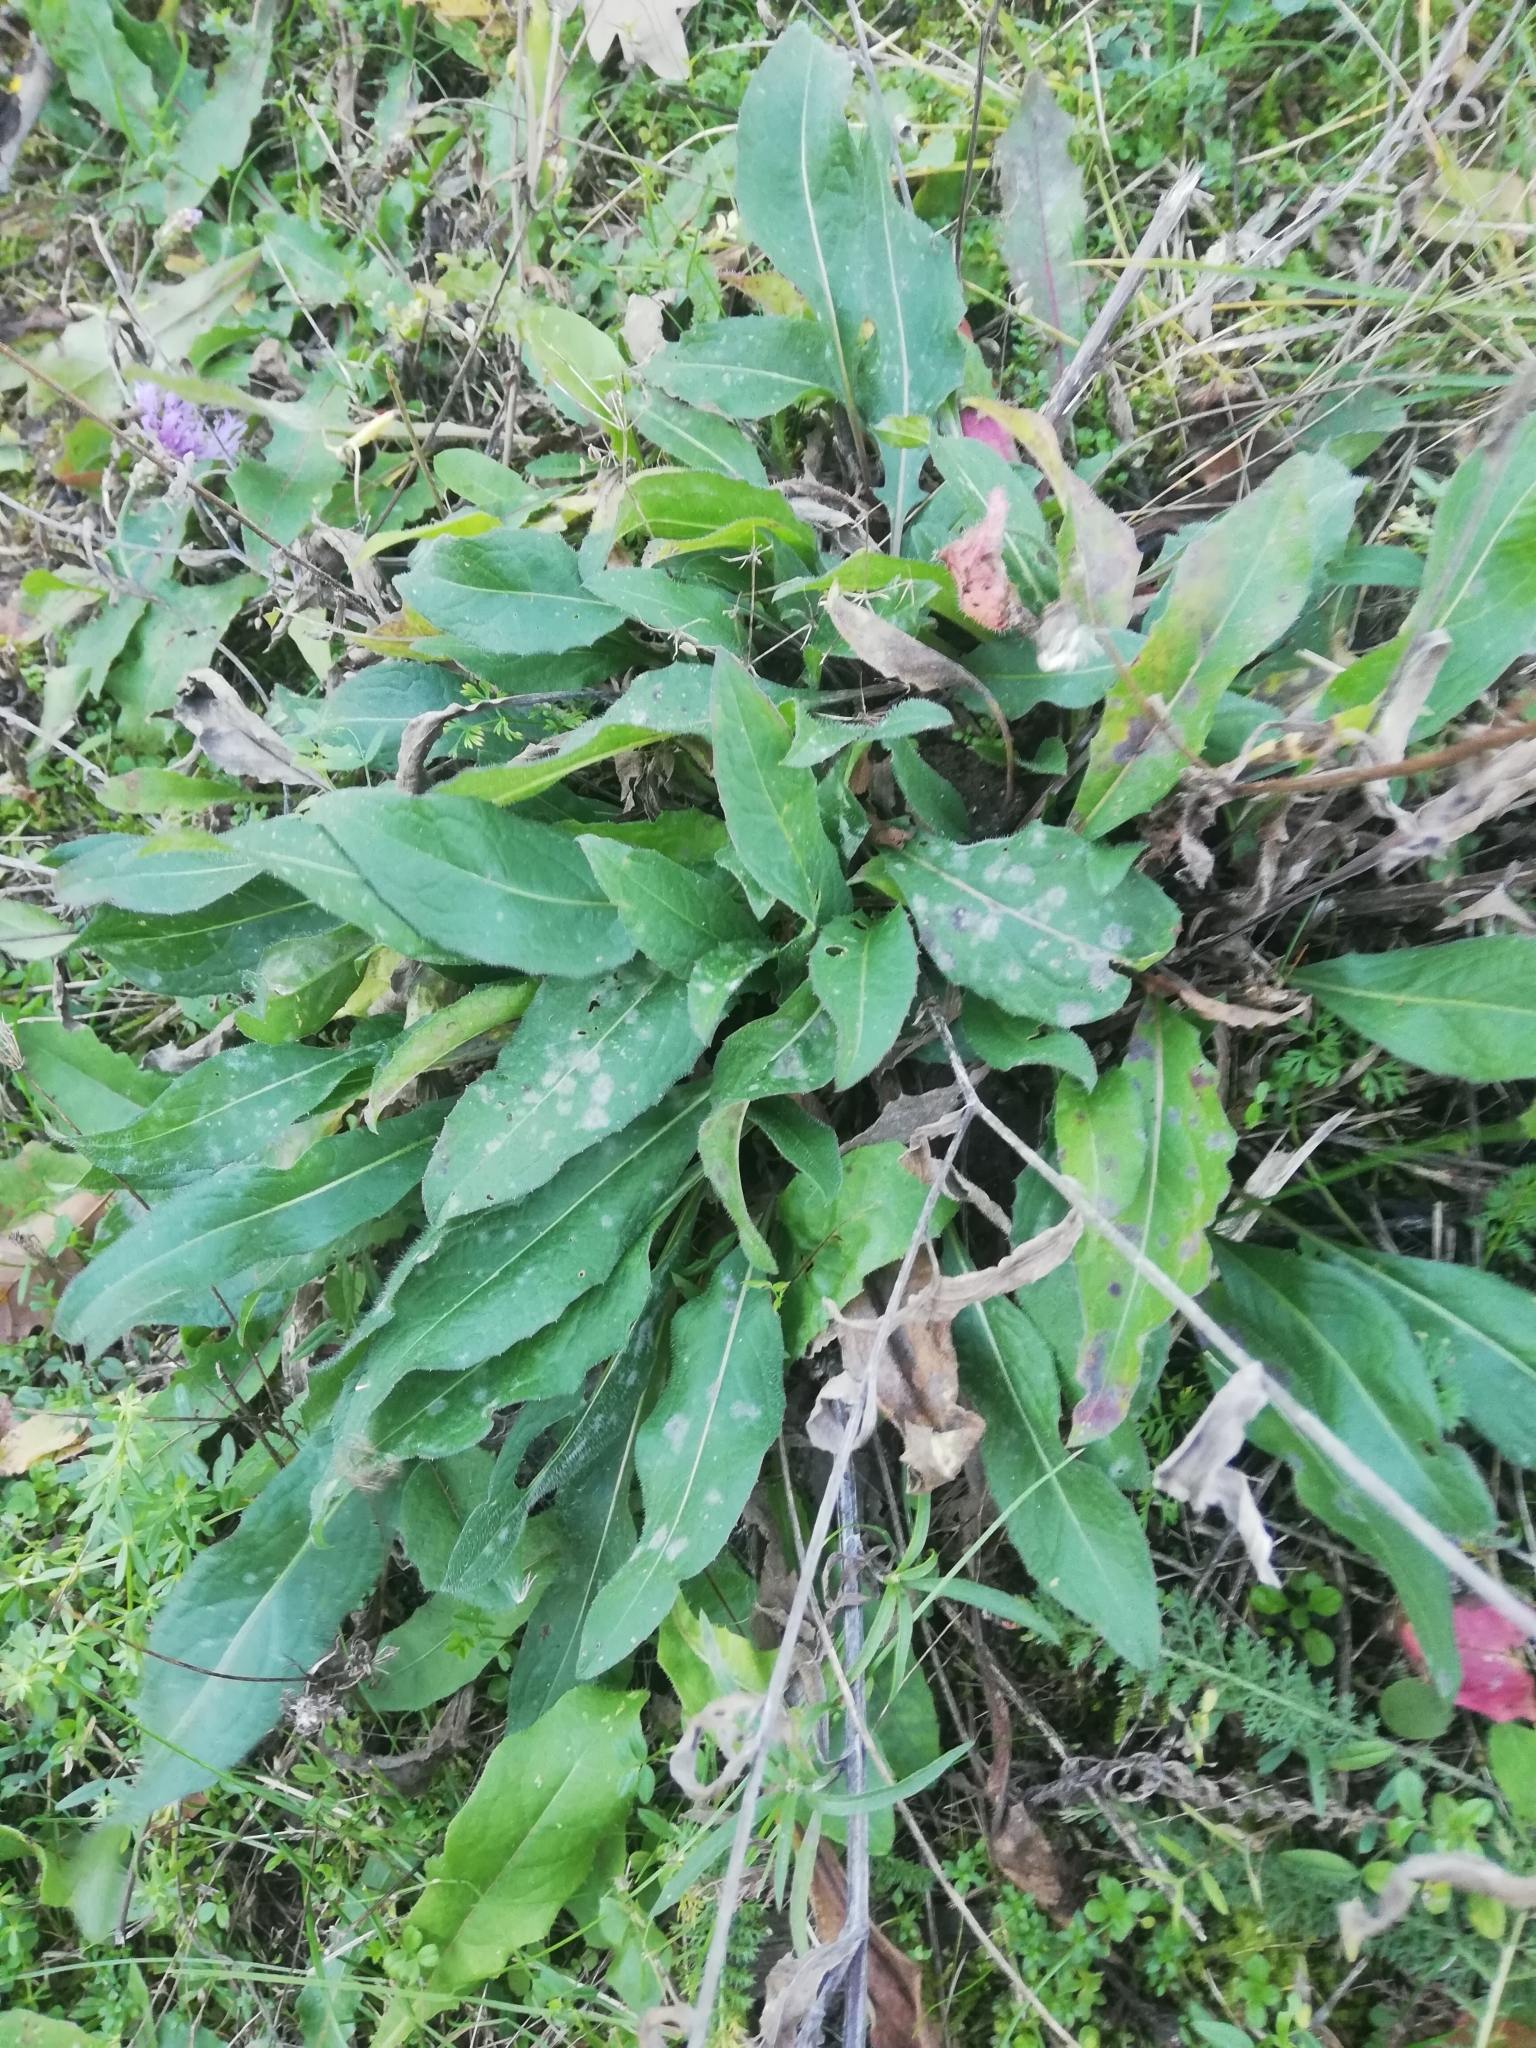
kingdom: Plantae
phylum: Tracheophyta
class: Magnoliopsida
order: Asterales
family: Asteraceae
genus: Centaurea
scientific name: Centaurea jacea
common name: Brown knapweed
